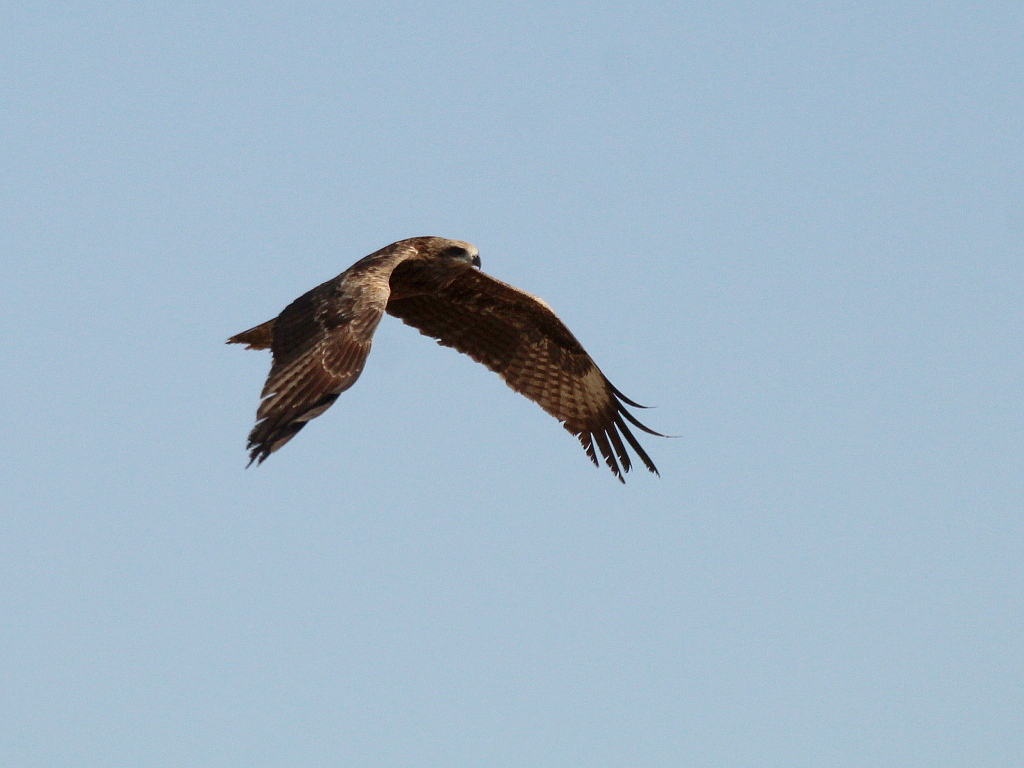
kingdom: Animalia
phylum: Chordata
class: Aves
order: Accipitriformes
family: Accipitridae
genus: Milvus
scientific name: Milvus migrans
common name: Black kite
